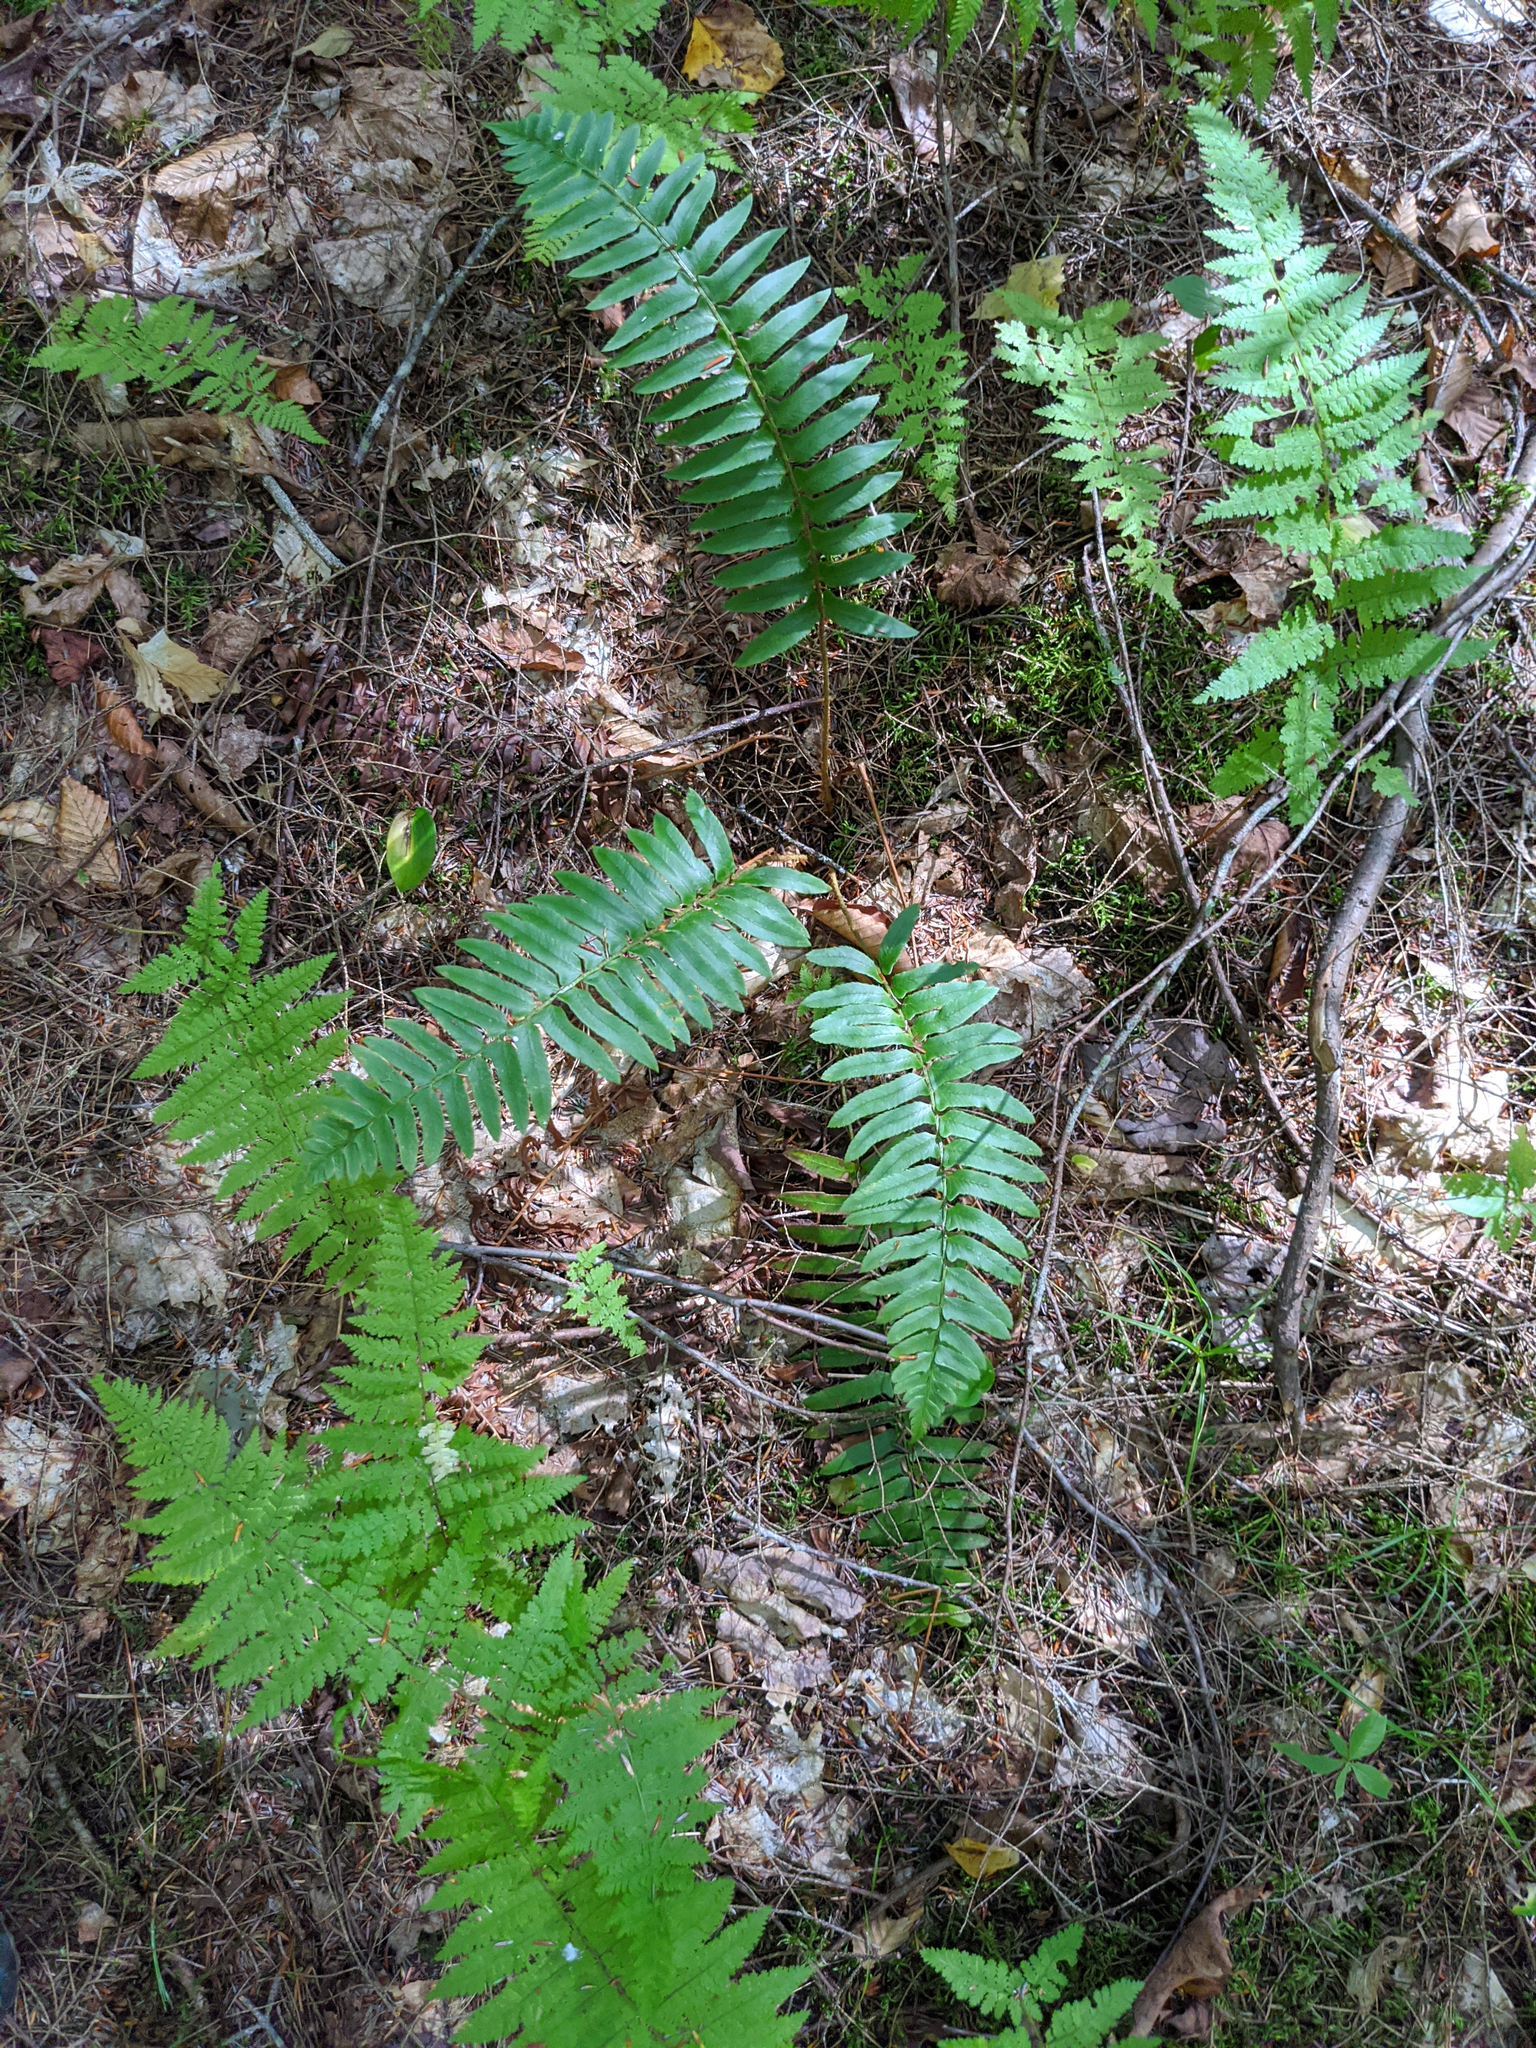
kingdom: Plantae
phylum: Tracheophyta
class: Polypodiopsida
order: Polypodiales
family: Dryopteridaceae
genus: Polystichum
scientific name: Polystichum acrostichoides
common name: Christmas fern
